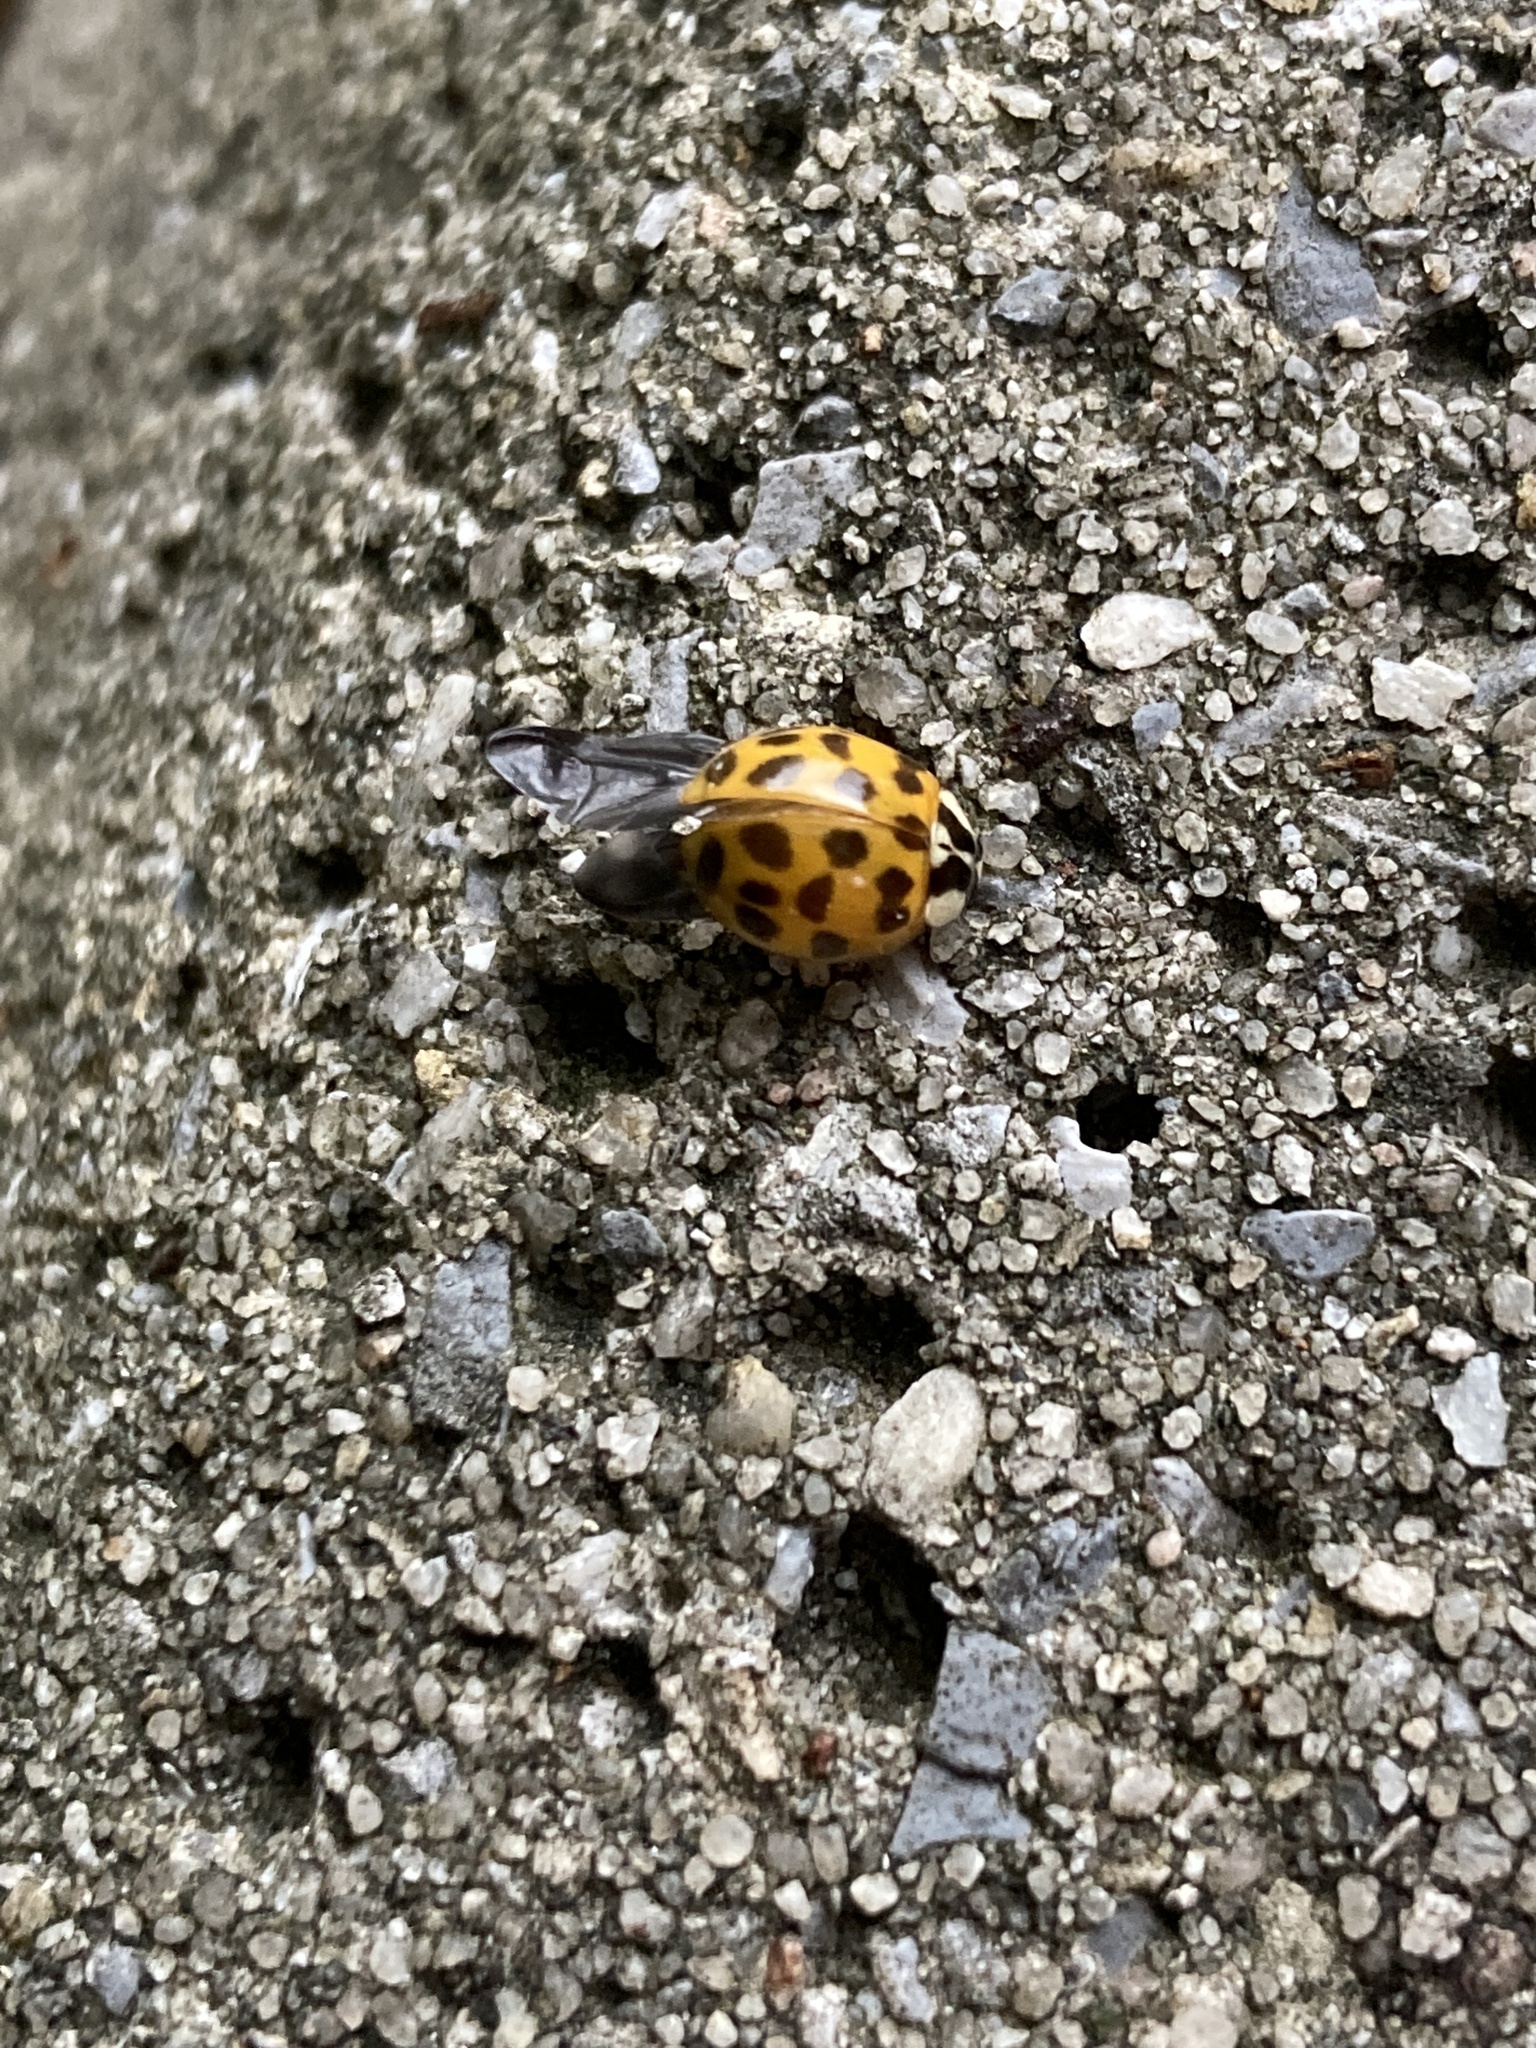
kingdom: Animalia
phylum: Arthropoda
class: Insecta
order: Coleoptera
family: Coccinellidae
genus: Harmonia
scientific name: Harmonia axyridis
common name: Harlequin ladybird
